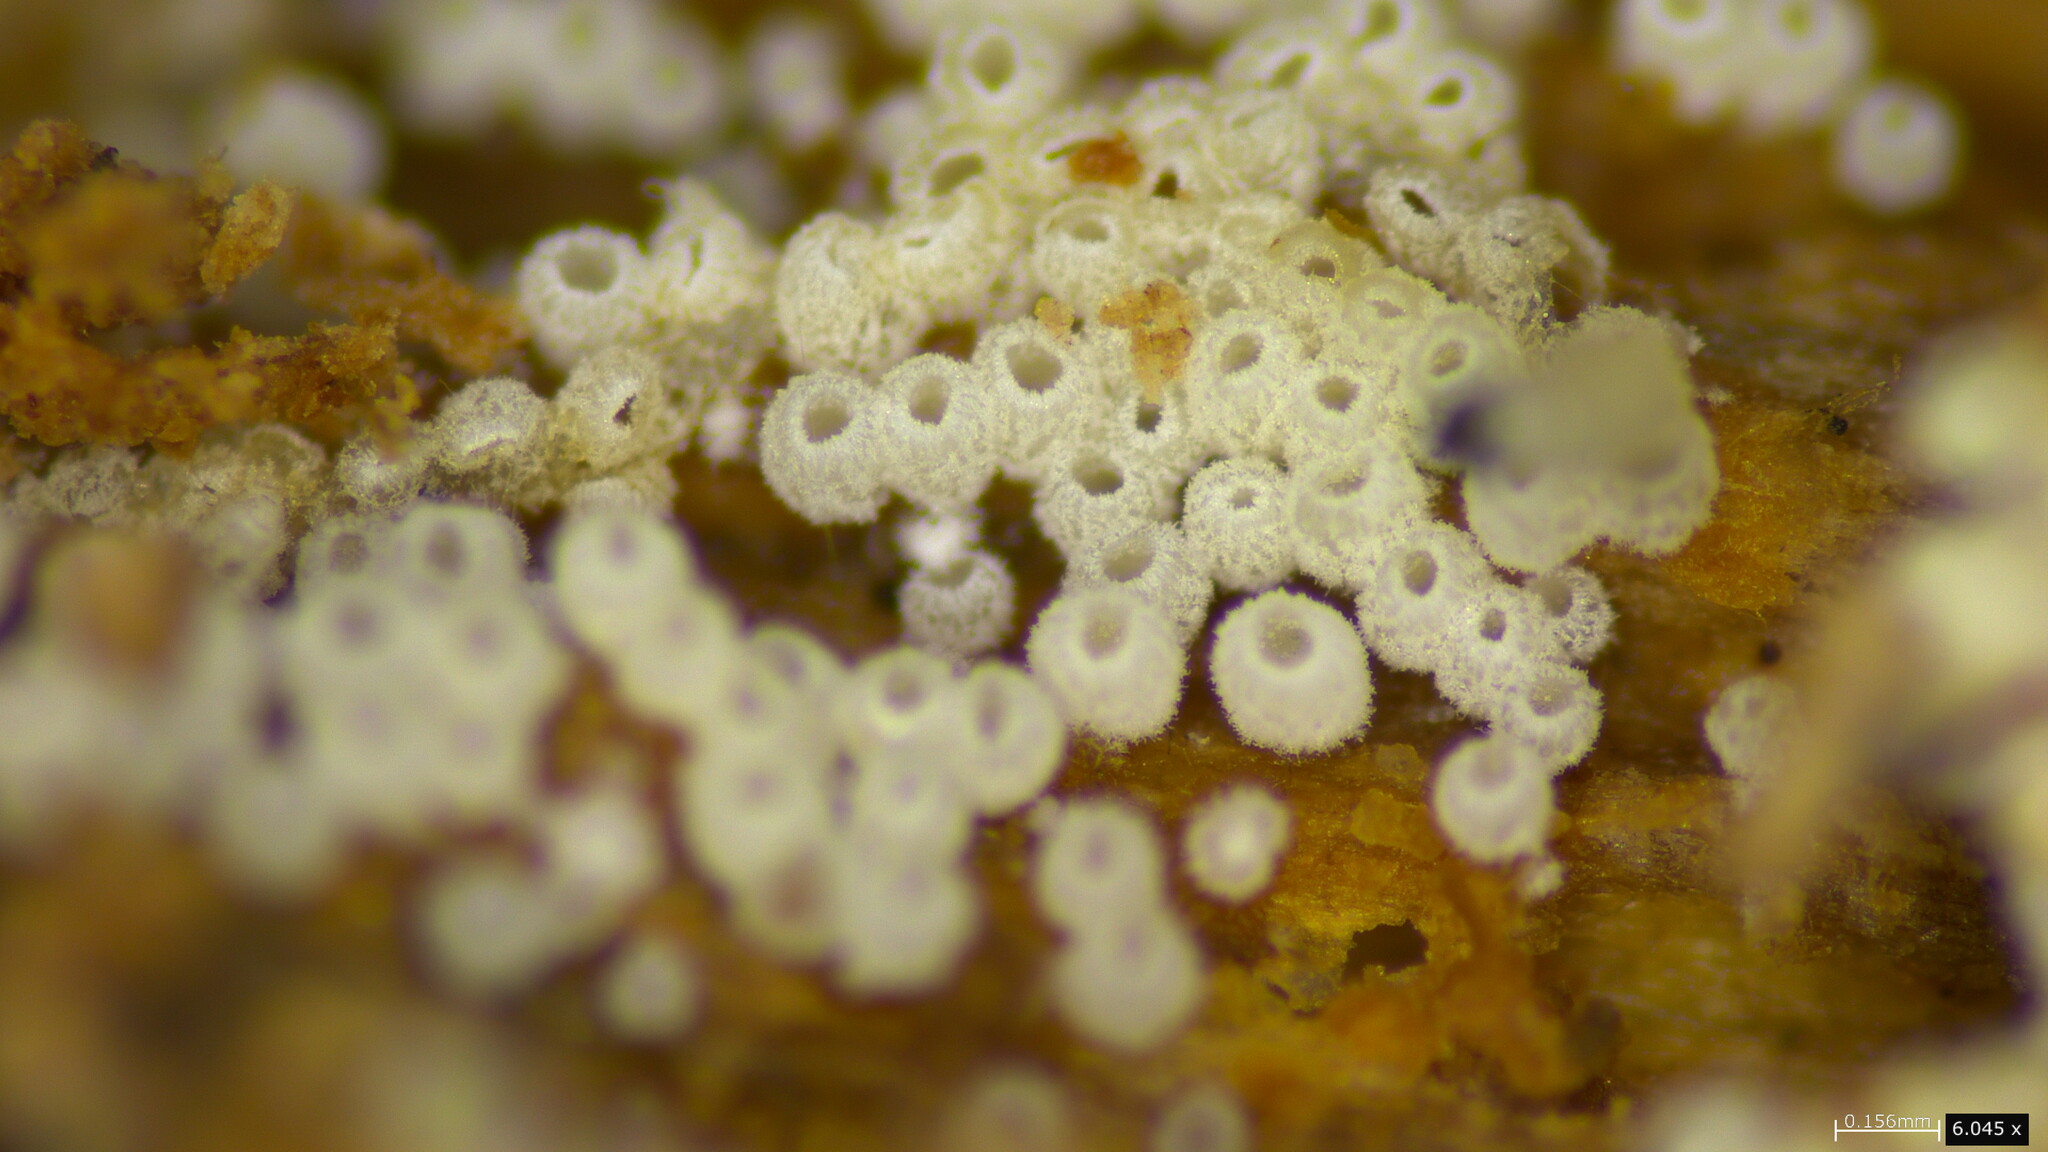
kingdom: Fungi
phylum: Basidiomycota
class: Agaricomycetes
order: Agaricales
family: Marasmiaceae
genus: Henningsomyces
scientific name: Henningsomyces candidus
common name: White tubelet
